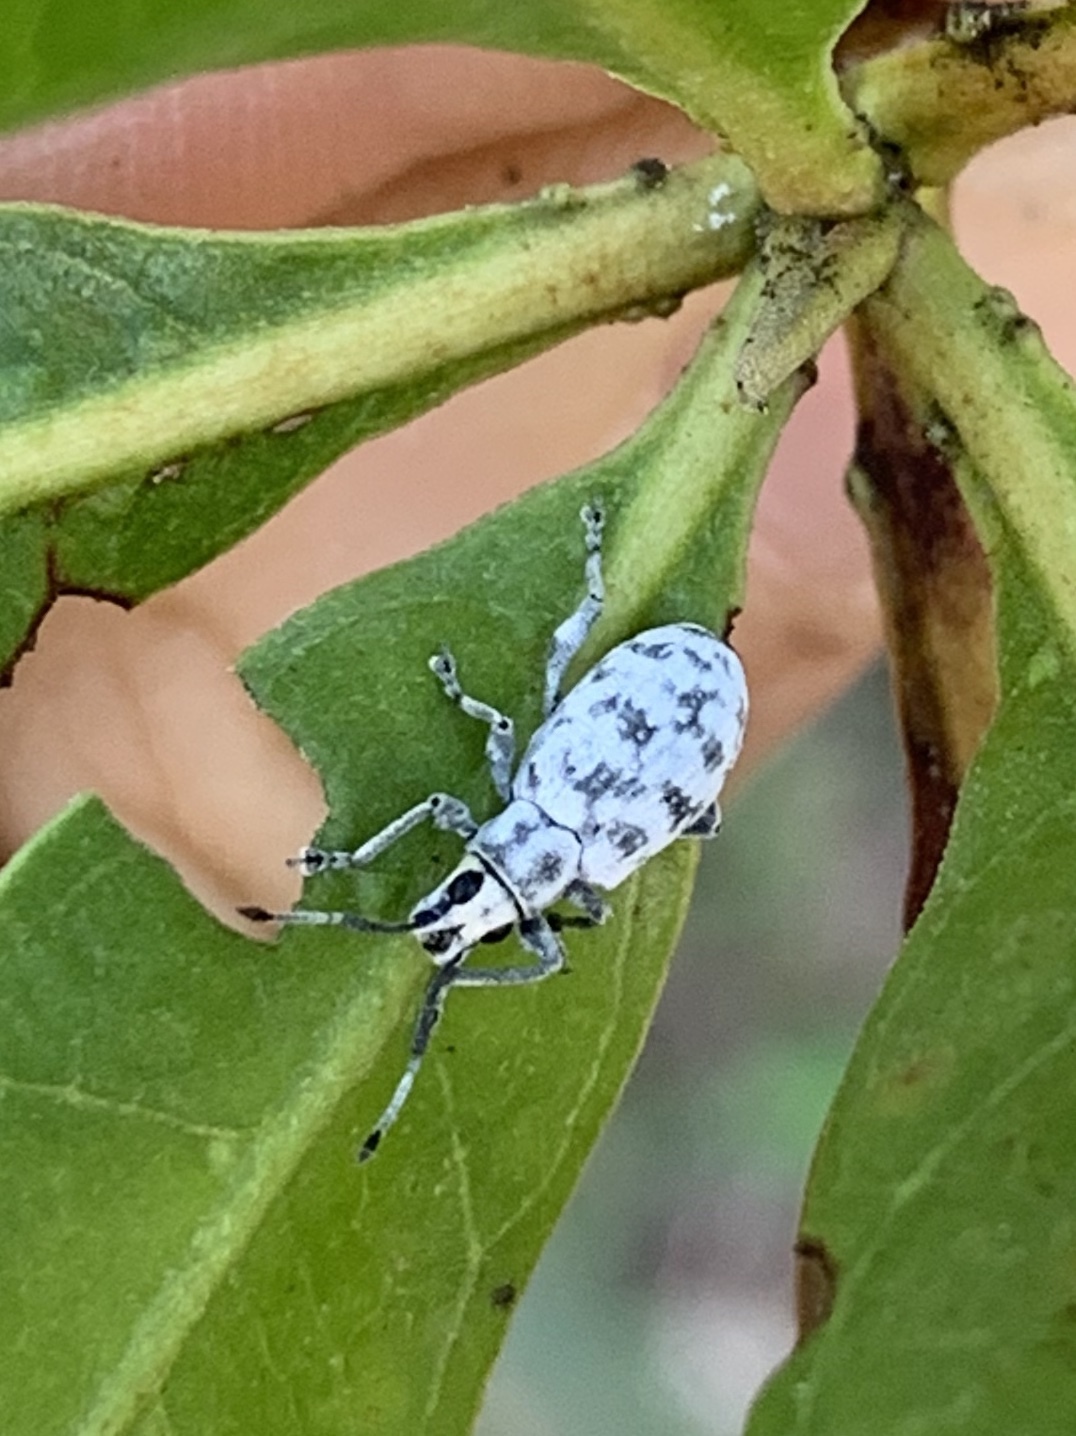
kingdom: Animalia
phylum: Arthropoda
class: Insecta
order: Coleoptera
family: Curculionidae
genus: Myllocerus
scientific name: Myllocerus undecimpustulatus
